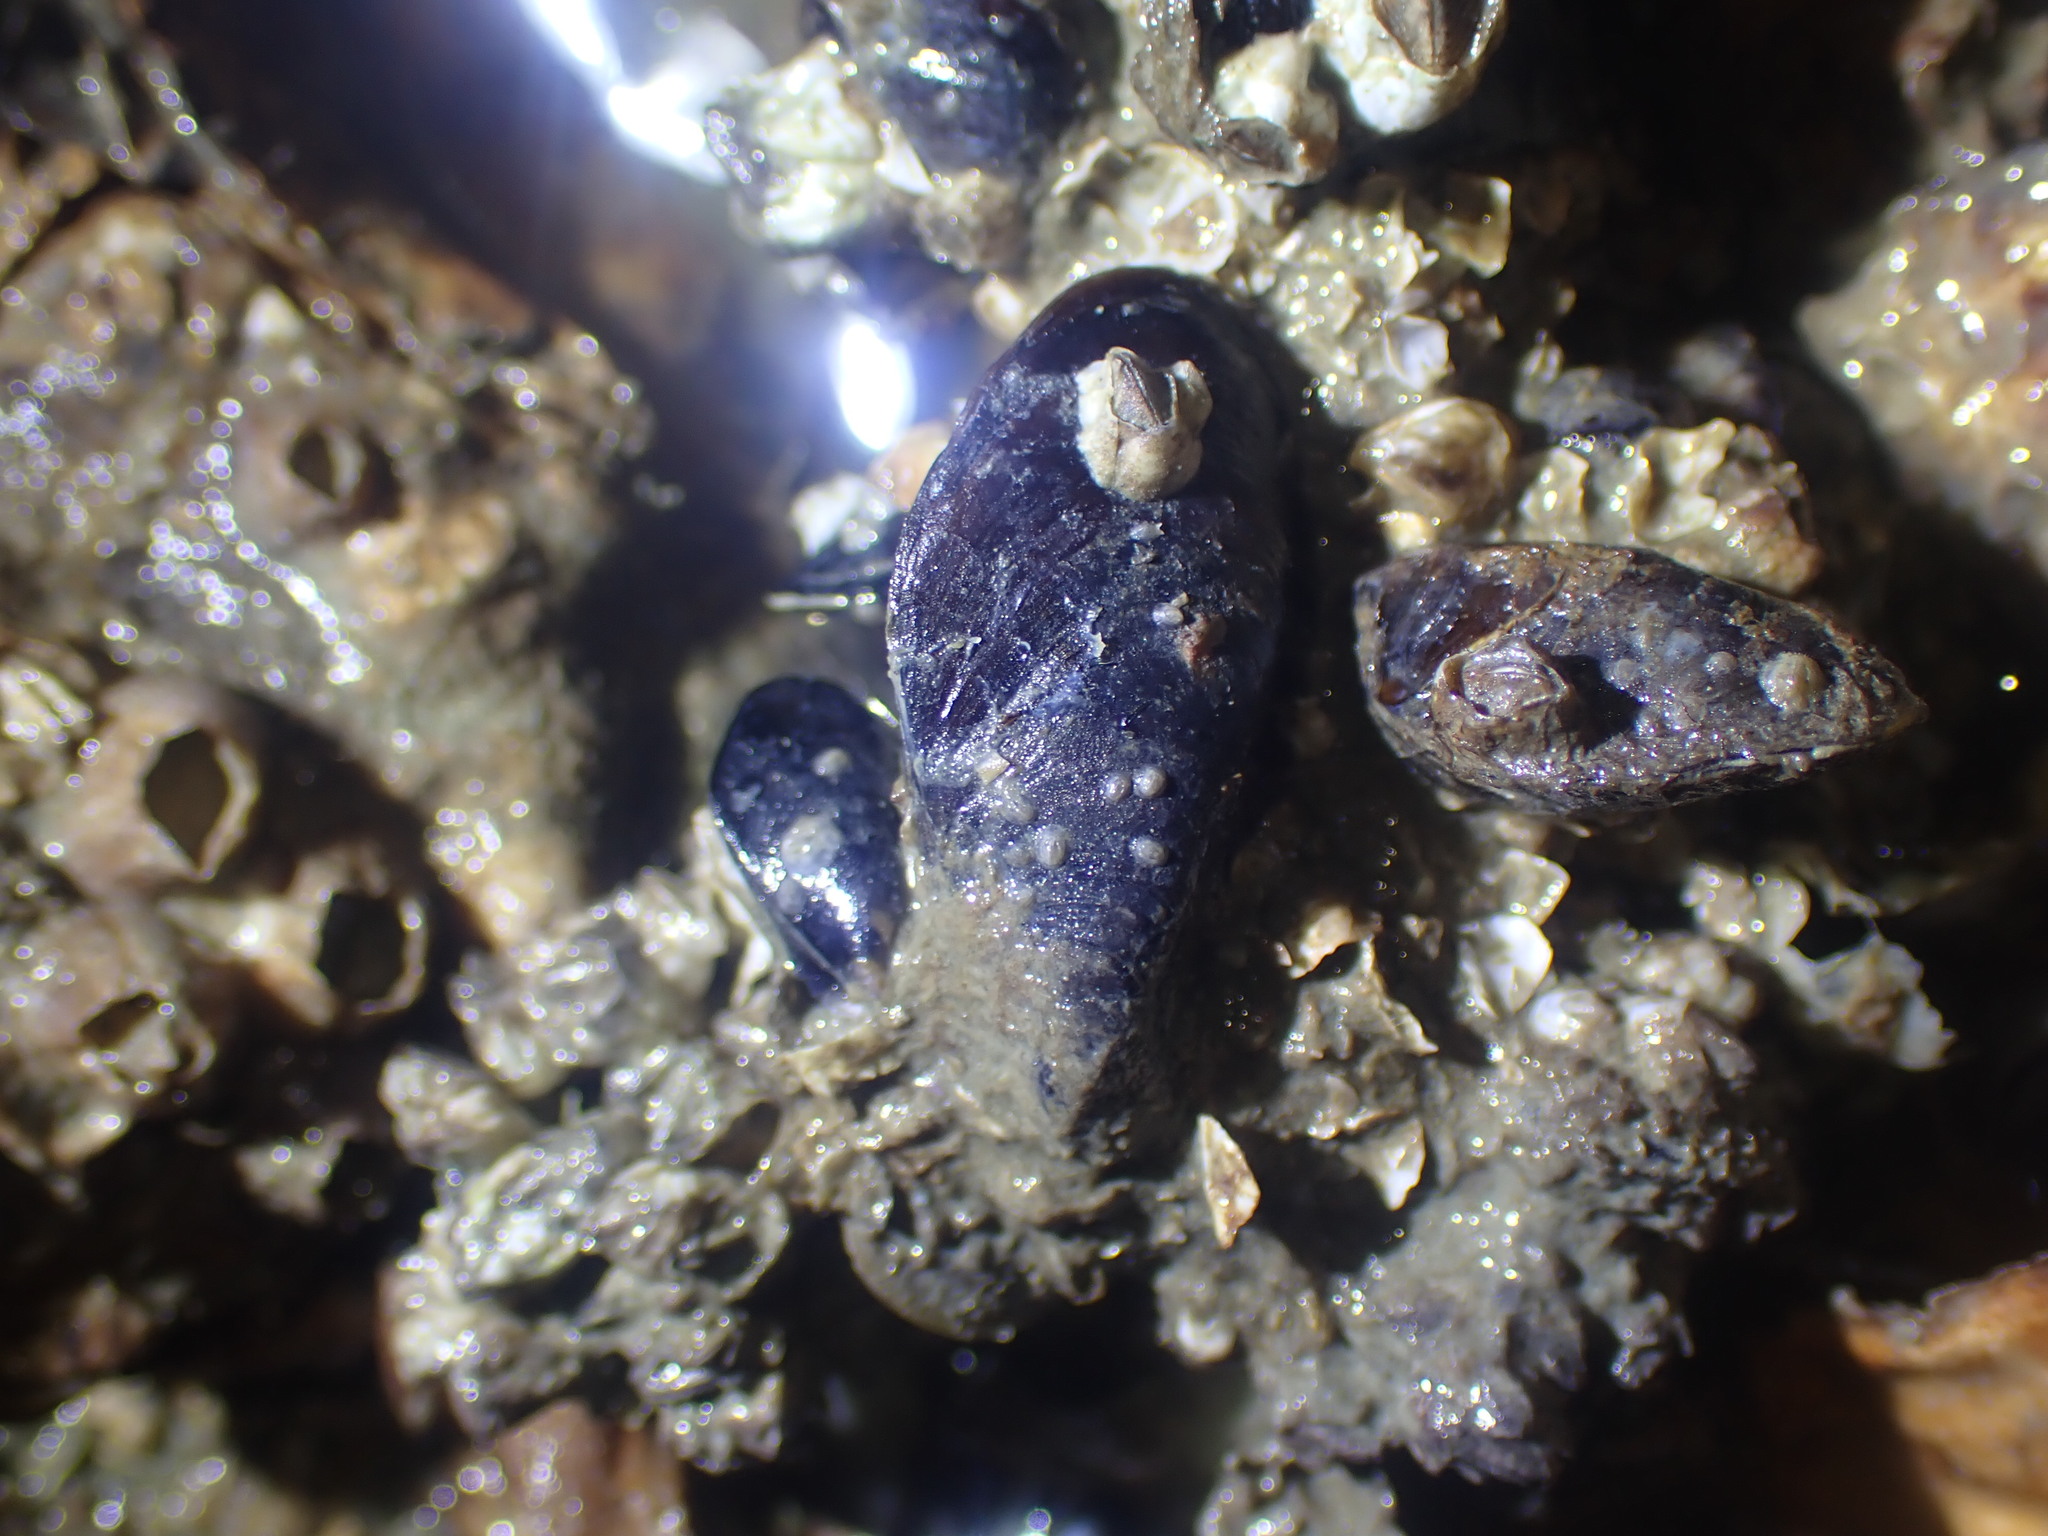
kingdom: Animalia
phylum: Mollusca
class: Bivalvia
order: Mytilida
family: Mytilidae
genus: Xenostrobus
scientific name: Xenostrobus neozelanicus
